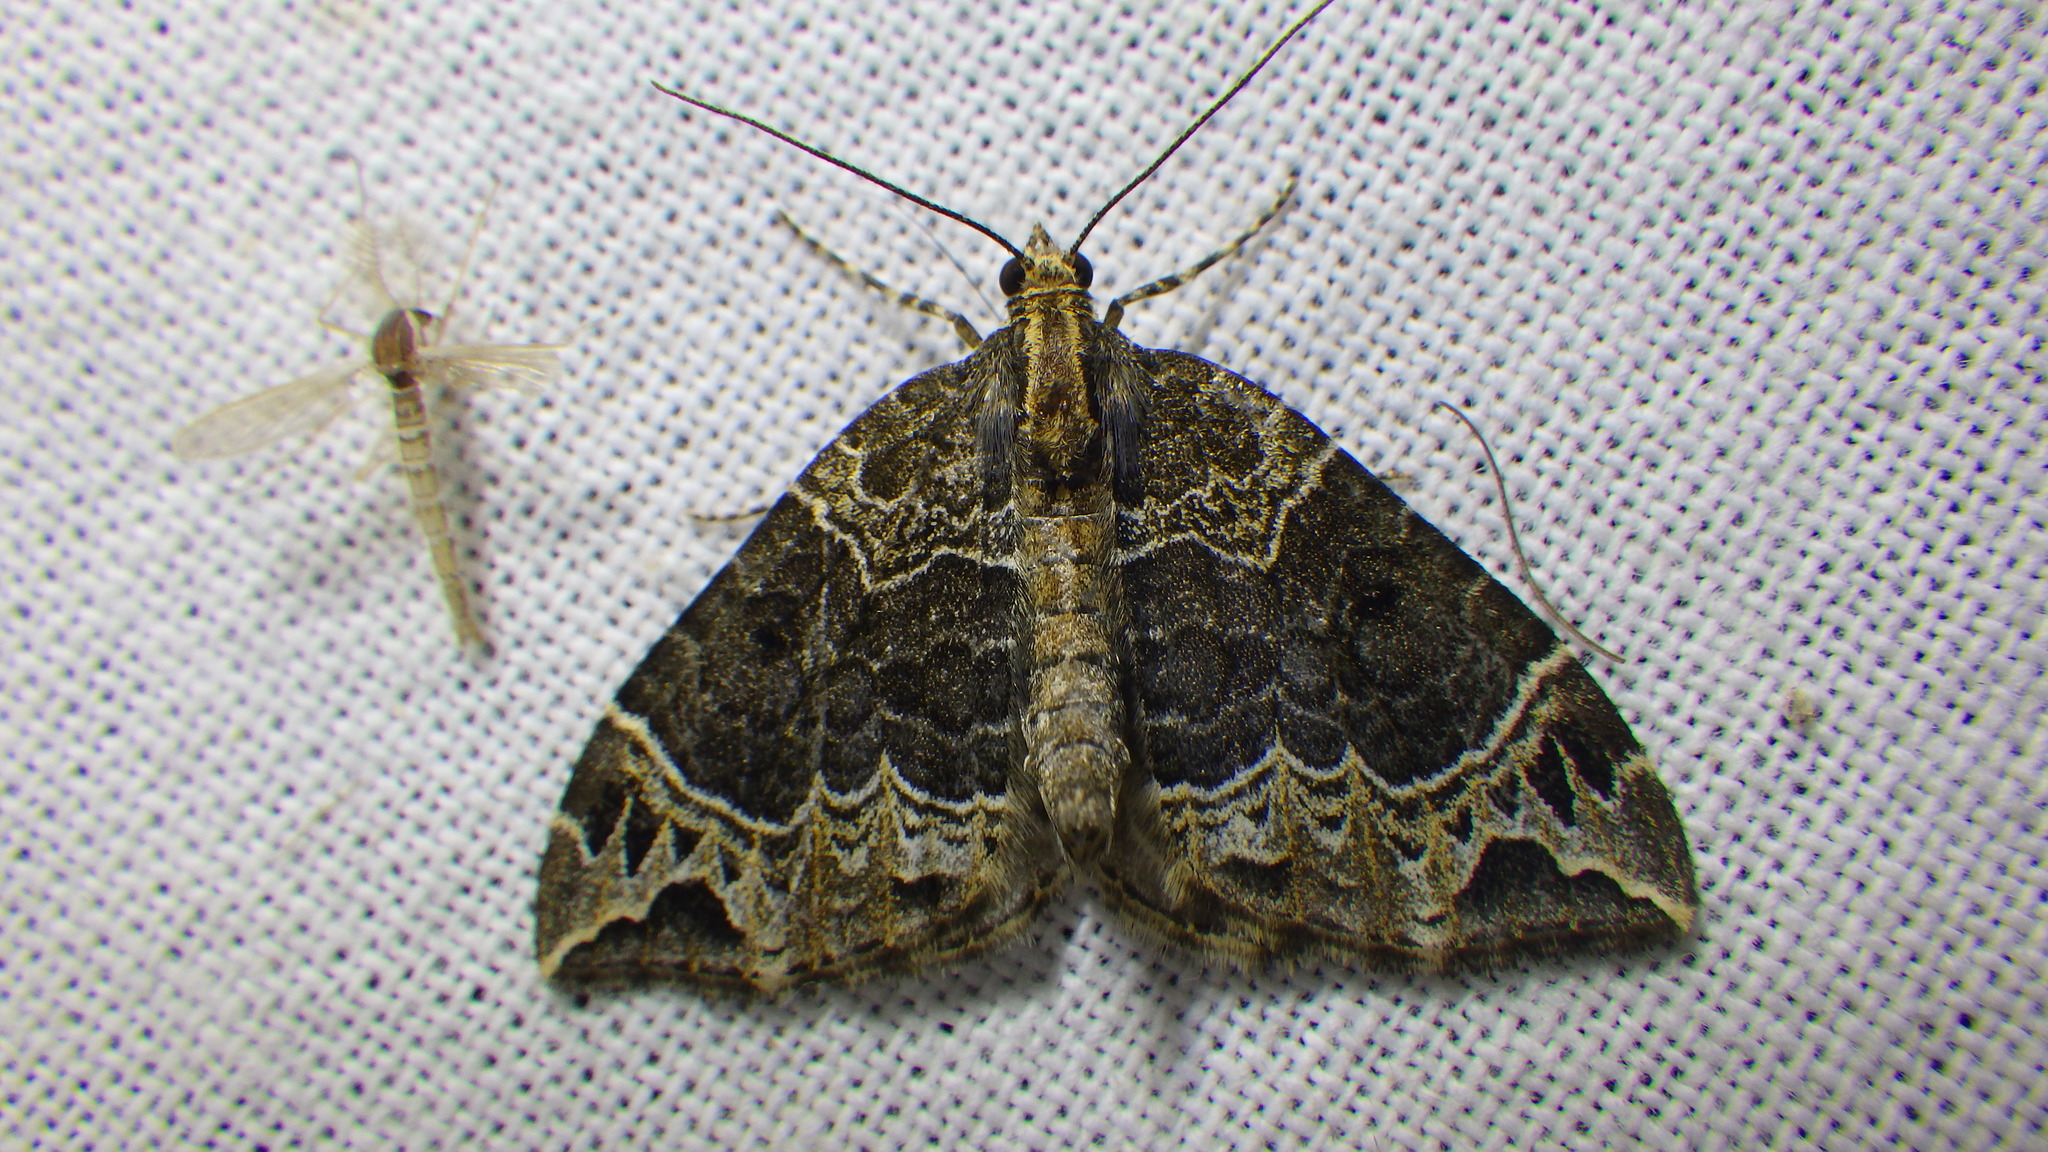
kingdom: Animalia
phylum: Arthropoda
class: Insecta
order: Lepidoptera
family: Geometridae
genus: Ecliptopera
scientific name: Ecliptopera silaceata
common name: Small phoenix
